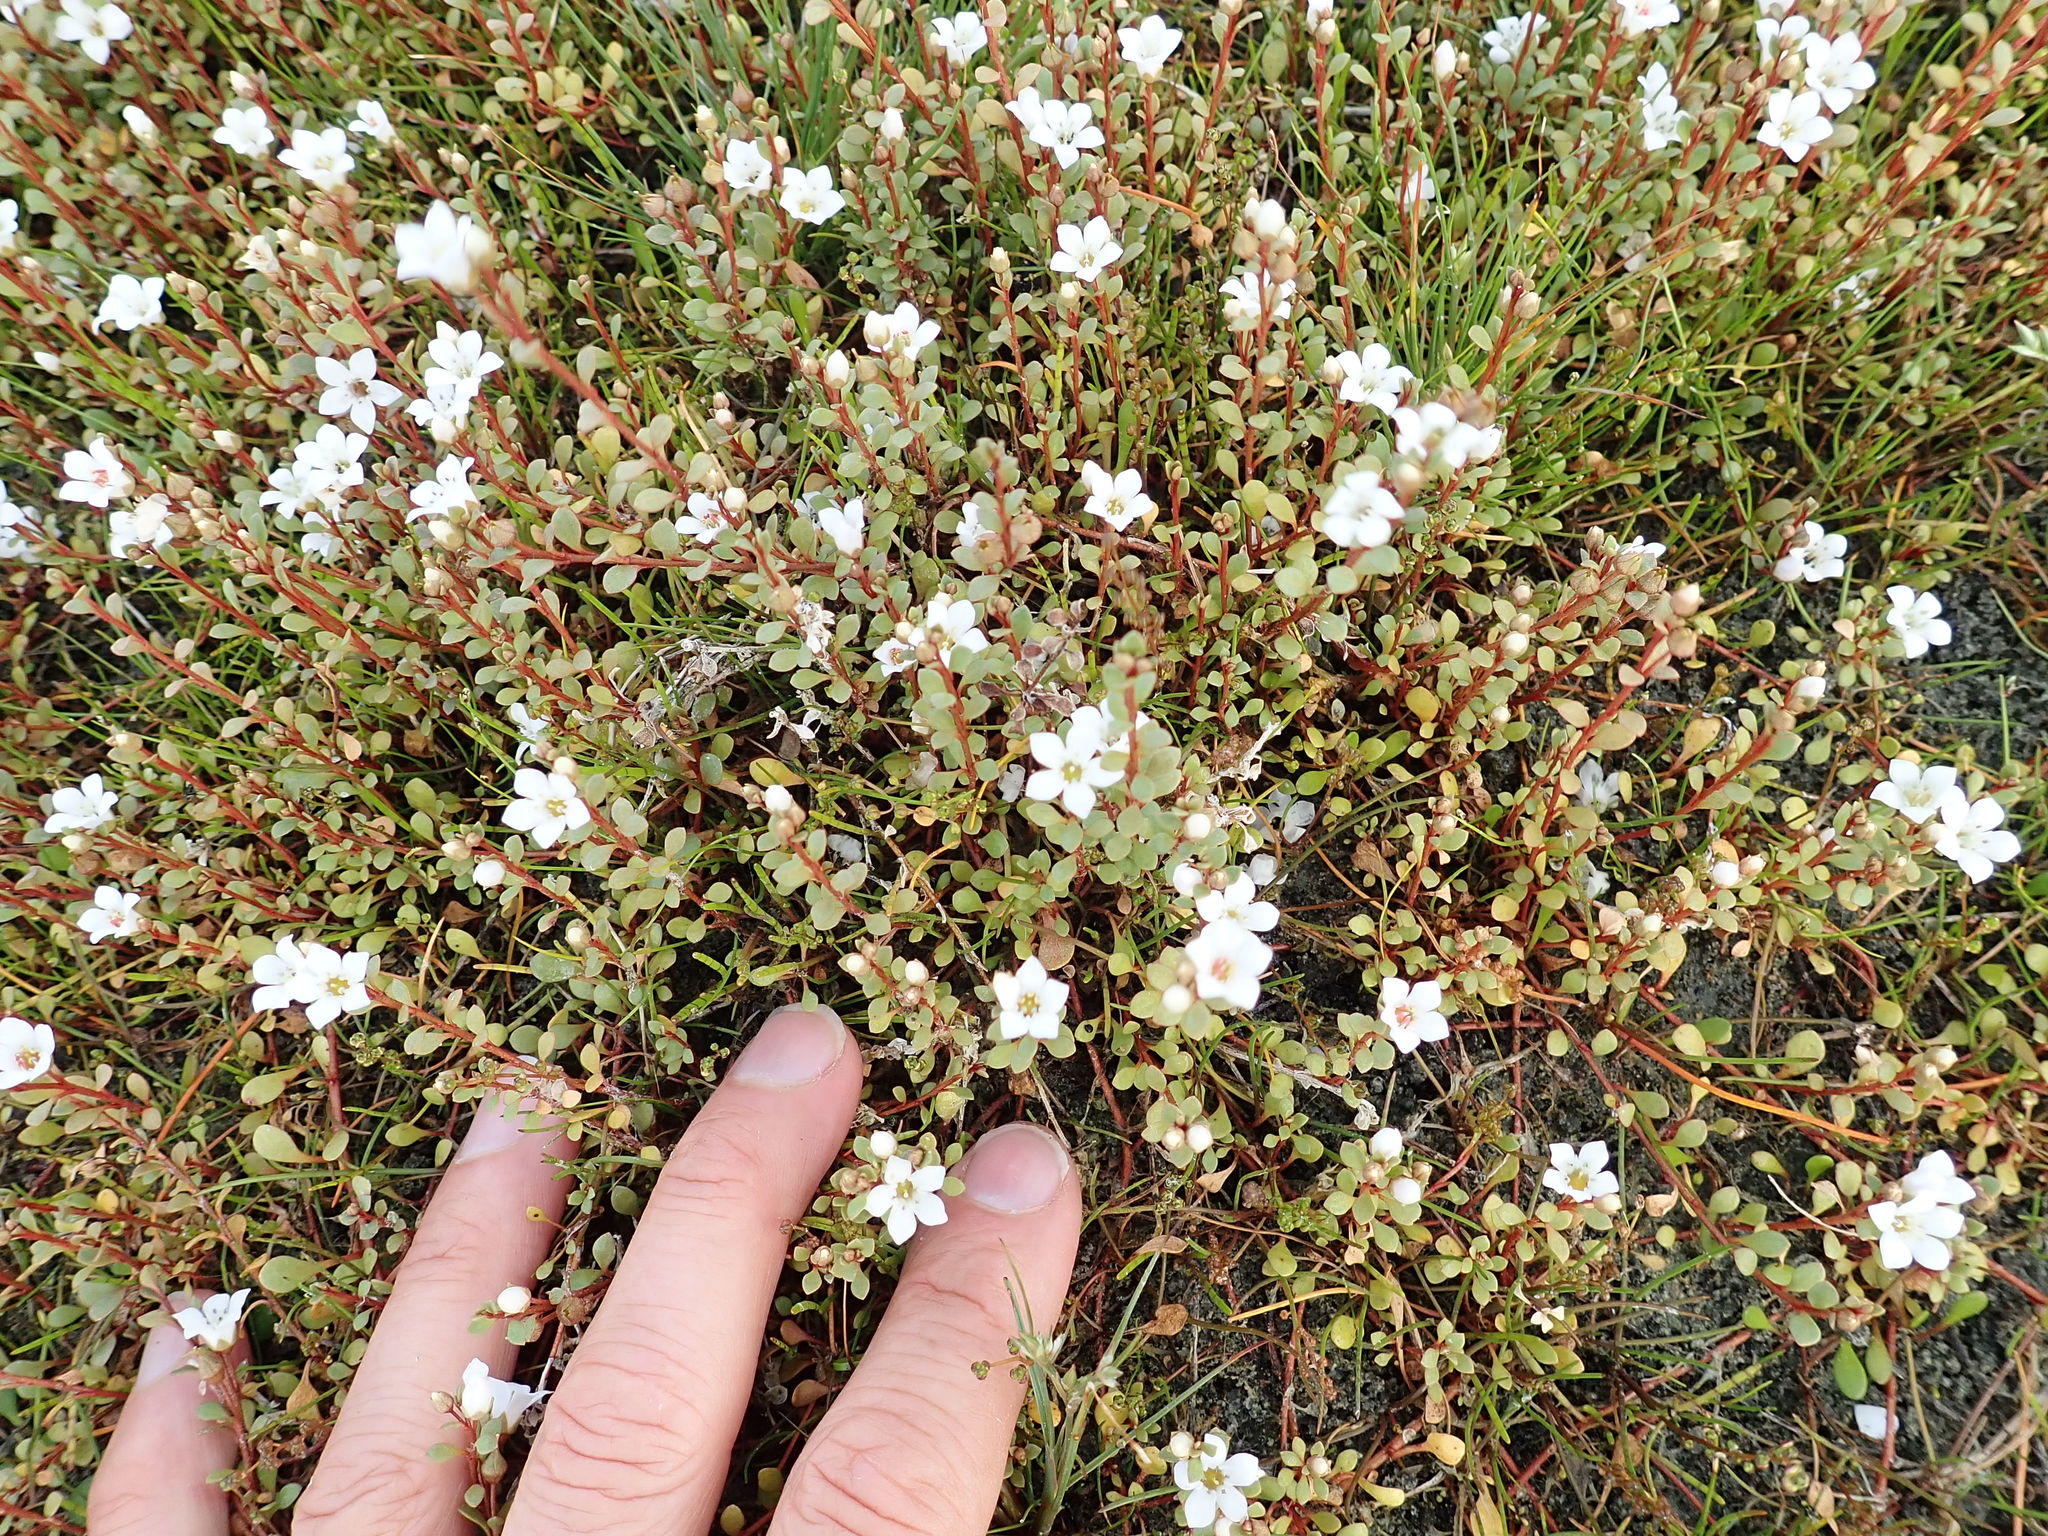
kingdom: Plantae
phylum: Tracheophyta
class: Magnoliopsida
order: Ericales
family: Primulaceae
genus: Samolus
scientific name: Samolus repens
